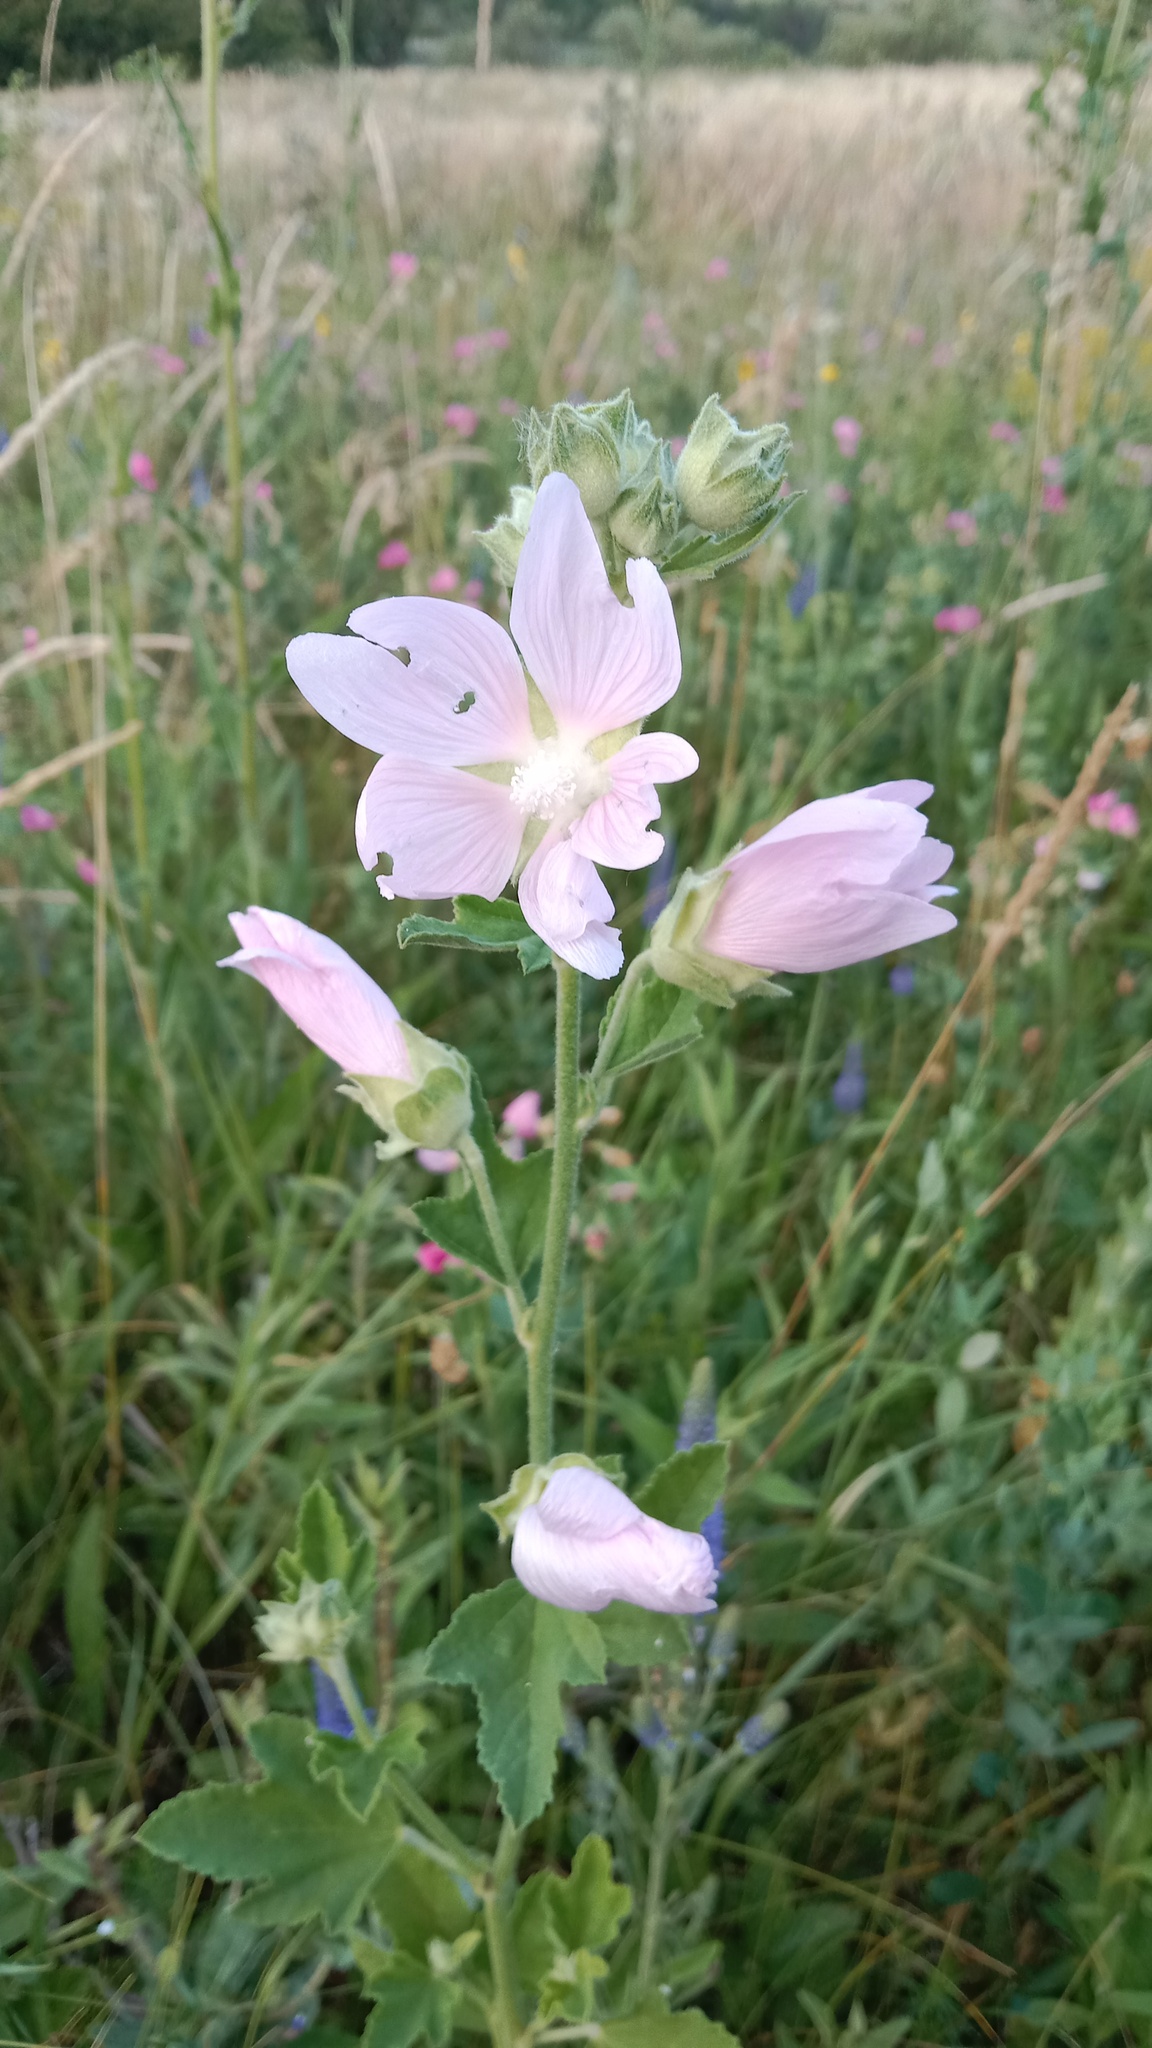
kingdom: Plantae
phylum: Tracheophyta
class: Magnoliopsida
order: Malvales
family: Malvaceae
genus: Malva
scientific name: Malva thuringiaca
